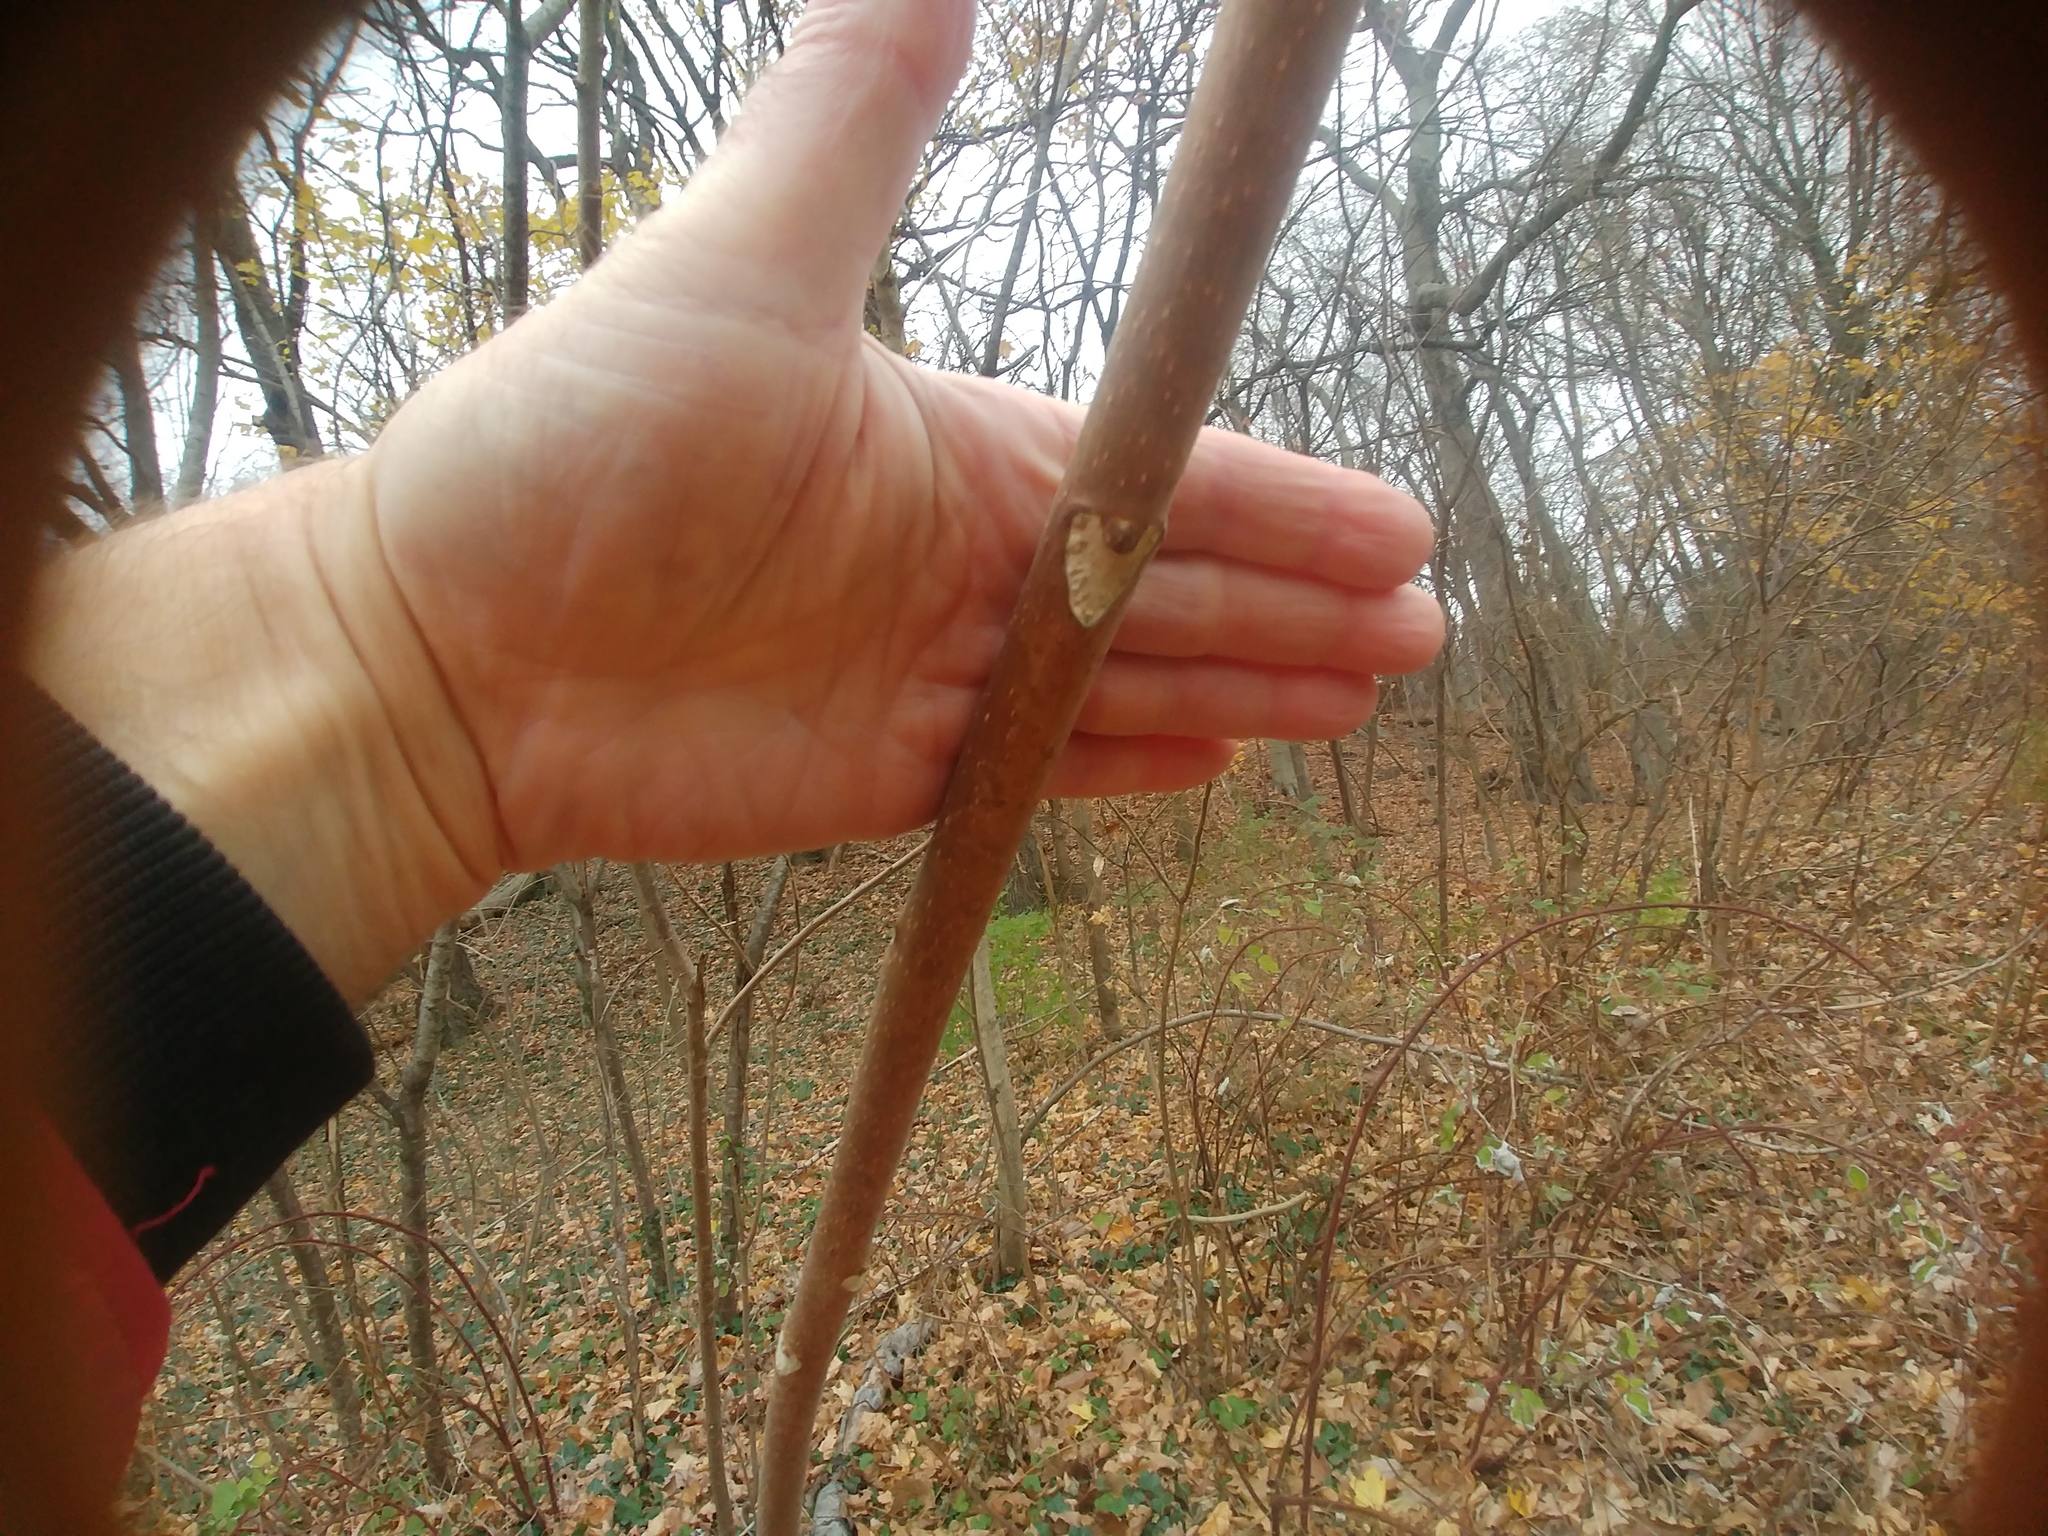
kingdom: Plantae
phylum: Tracheophyta
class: Magnoliopsida
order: Sapindales
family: Simaroubaceae
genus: Ailanthus
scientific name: Ailanthus altissima
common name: Tree-of-heaven
